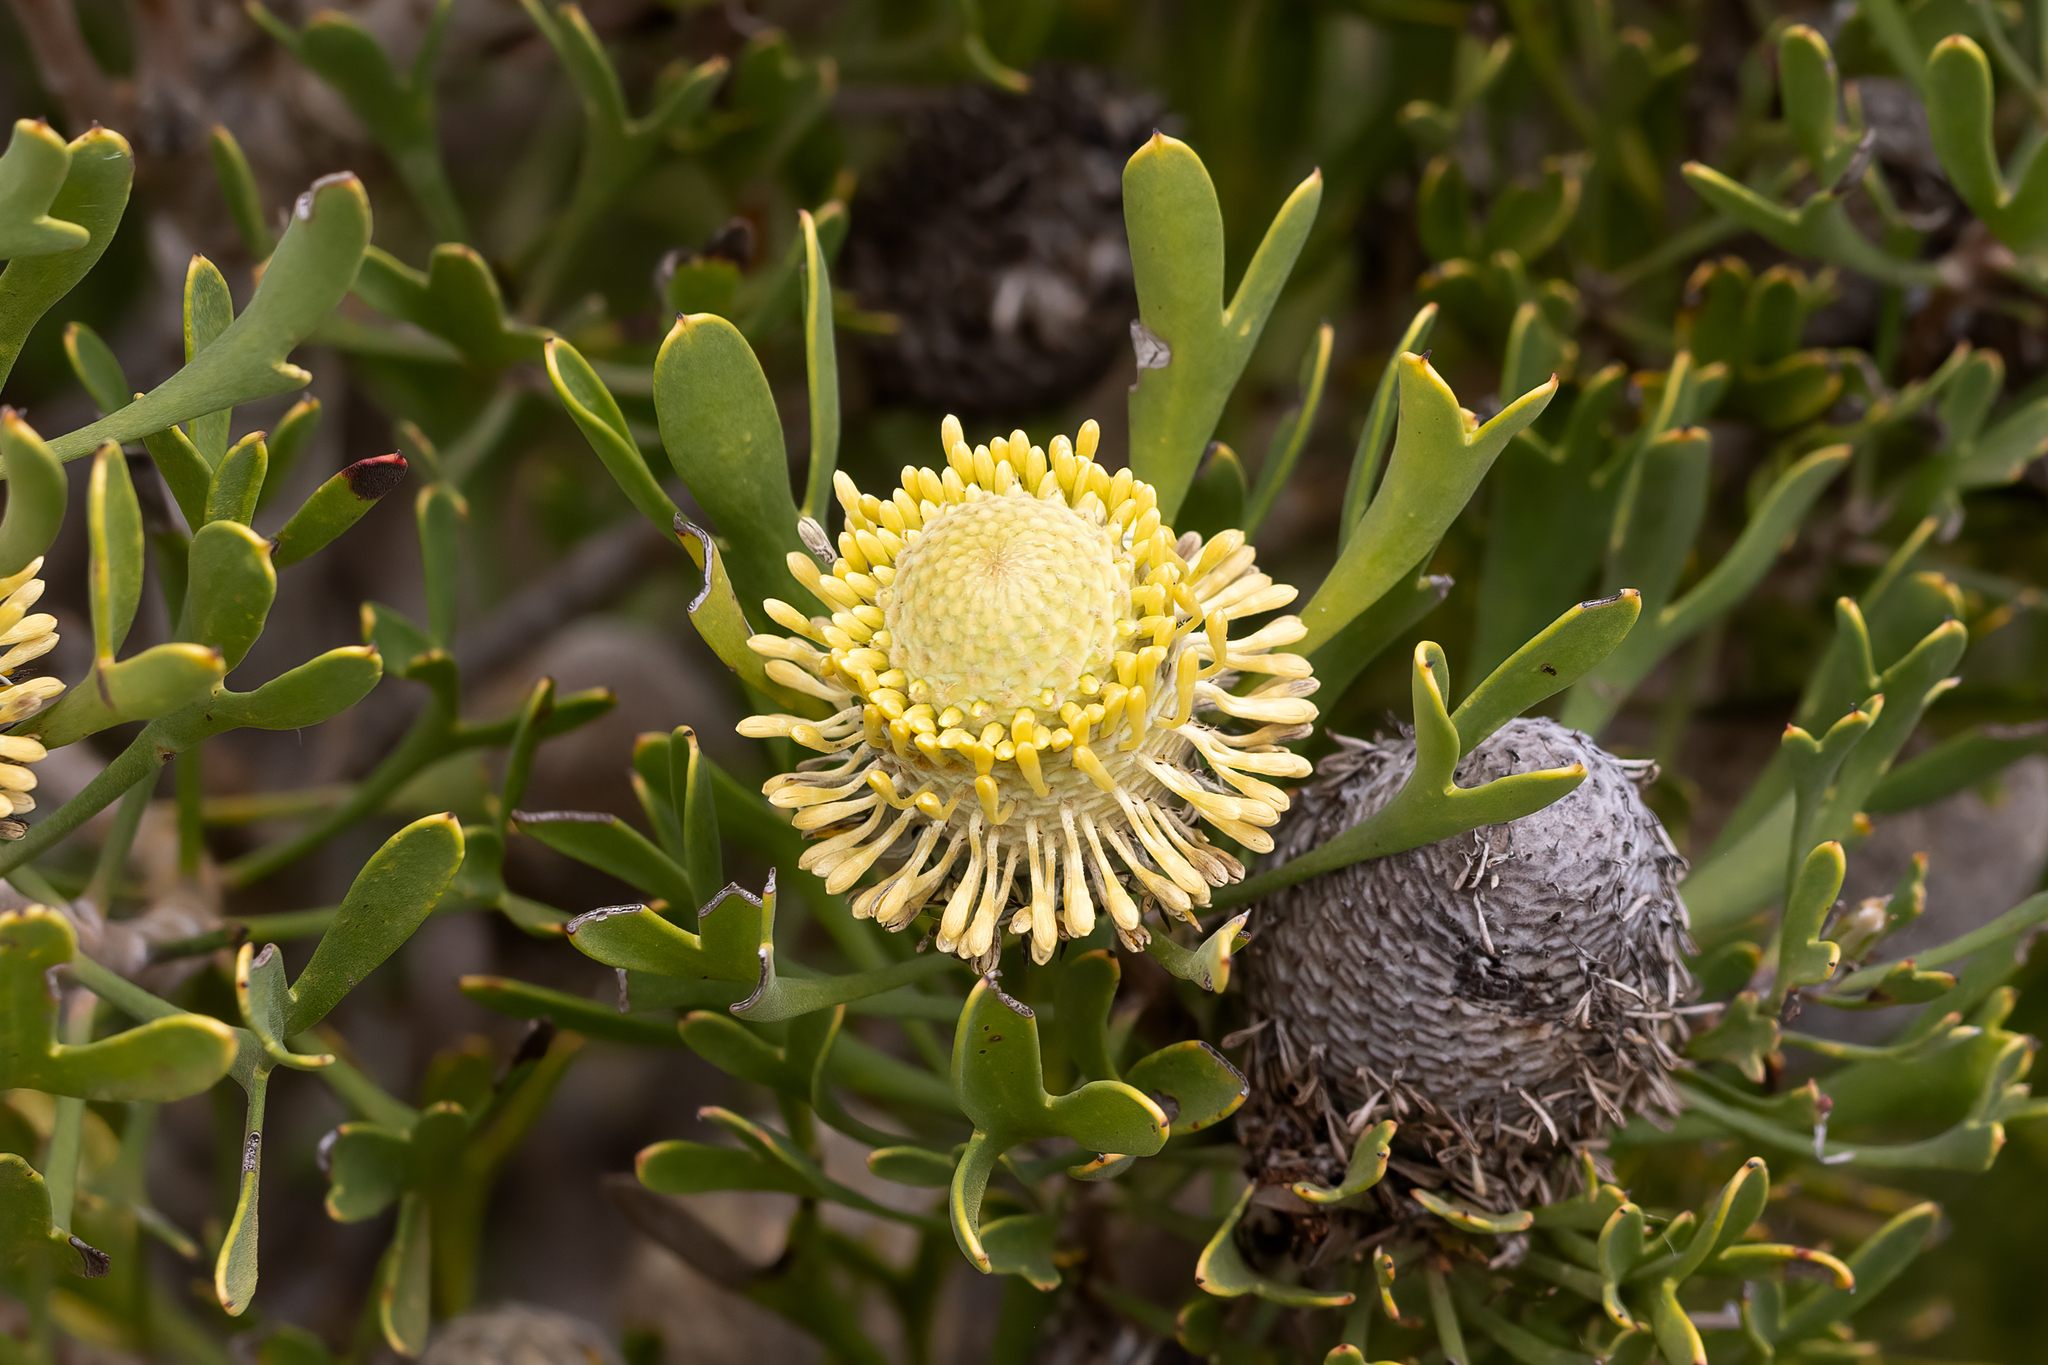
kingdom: Plantae
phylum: Tracheophyta
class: Magnoliopsida
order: Proteales
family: Proteaceae
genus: Isopogon
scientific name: Isopogon trilobus
